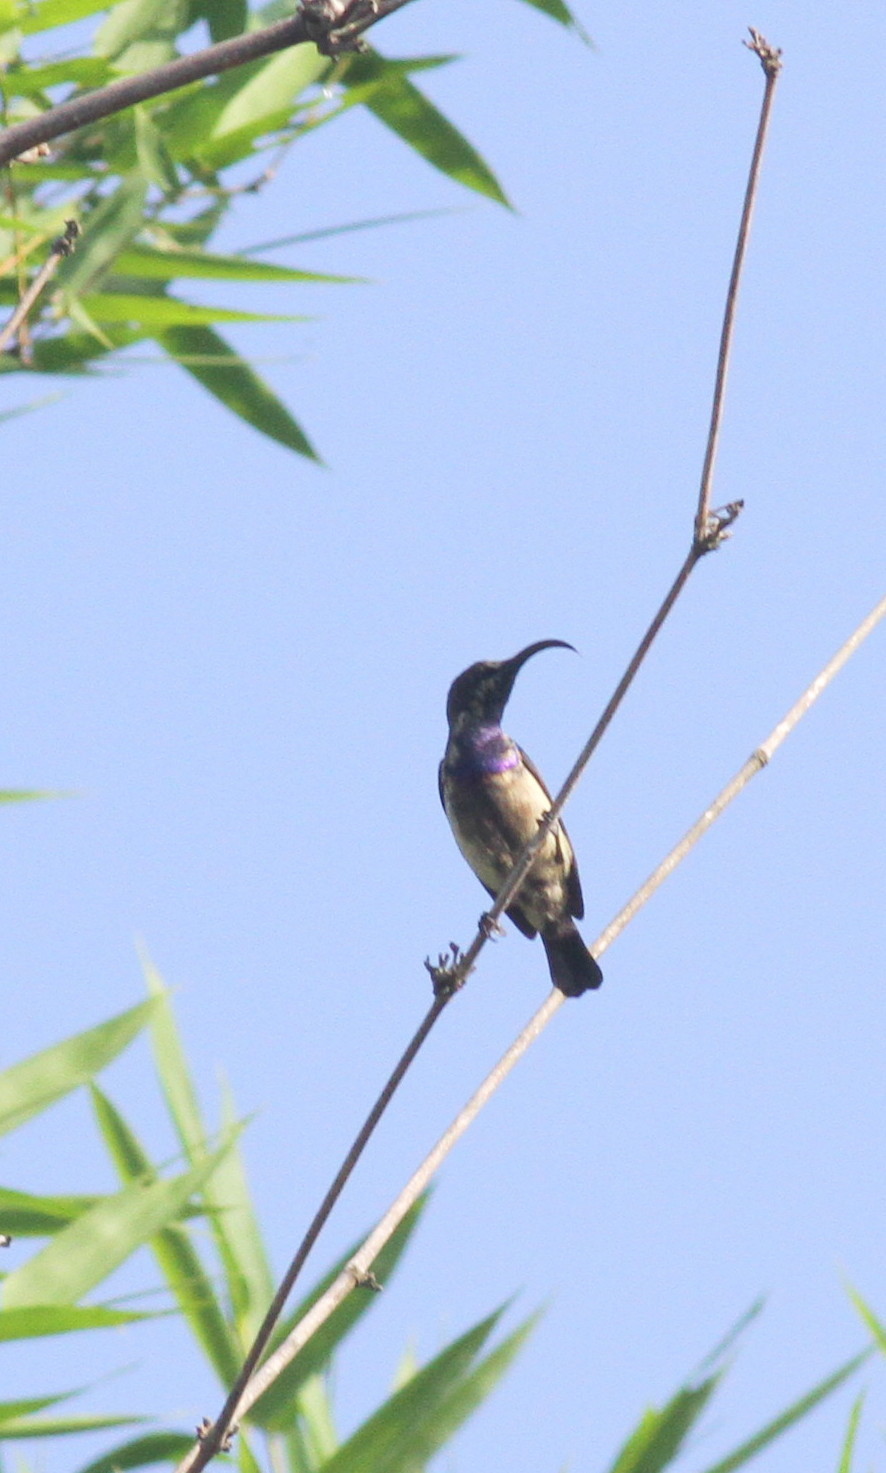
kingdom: Animalia
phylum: Chordata
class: Aves
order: Passeriformes
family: Nectariniidae
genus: Cinnyris
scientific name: Cinnyris lotenius
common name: Loten's sunbird
